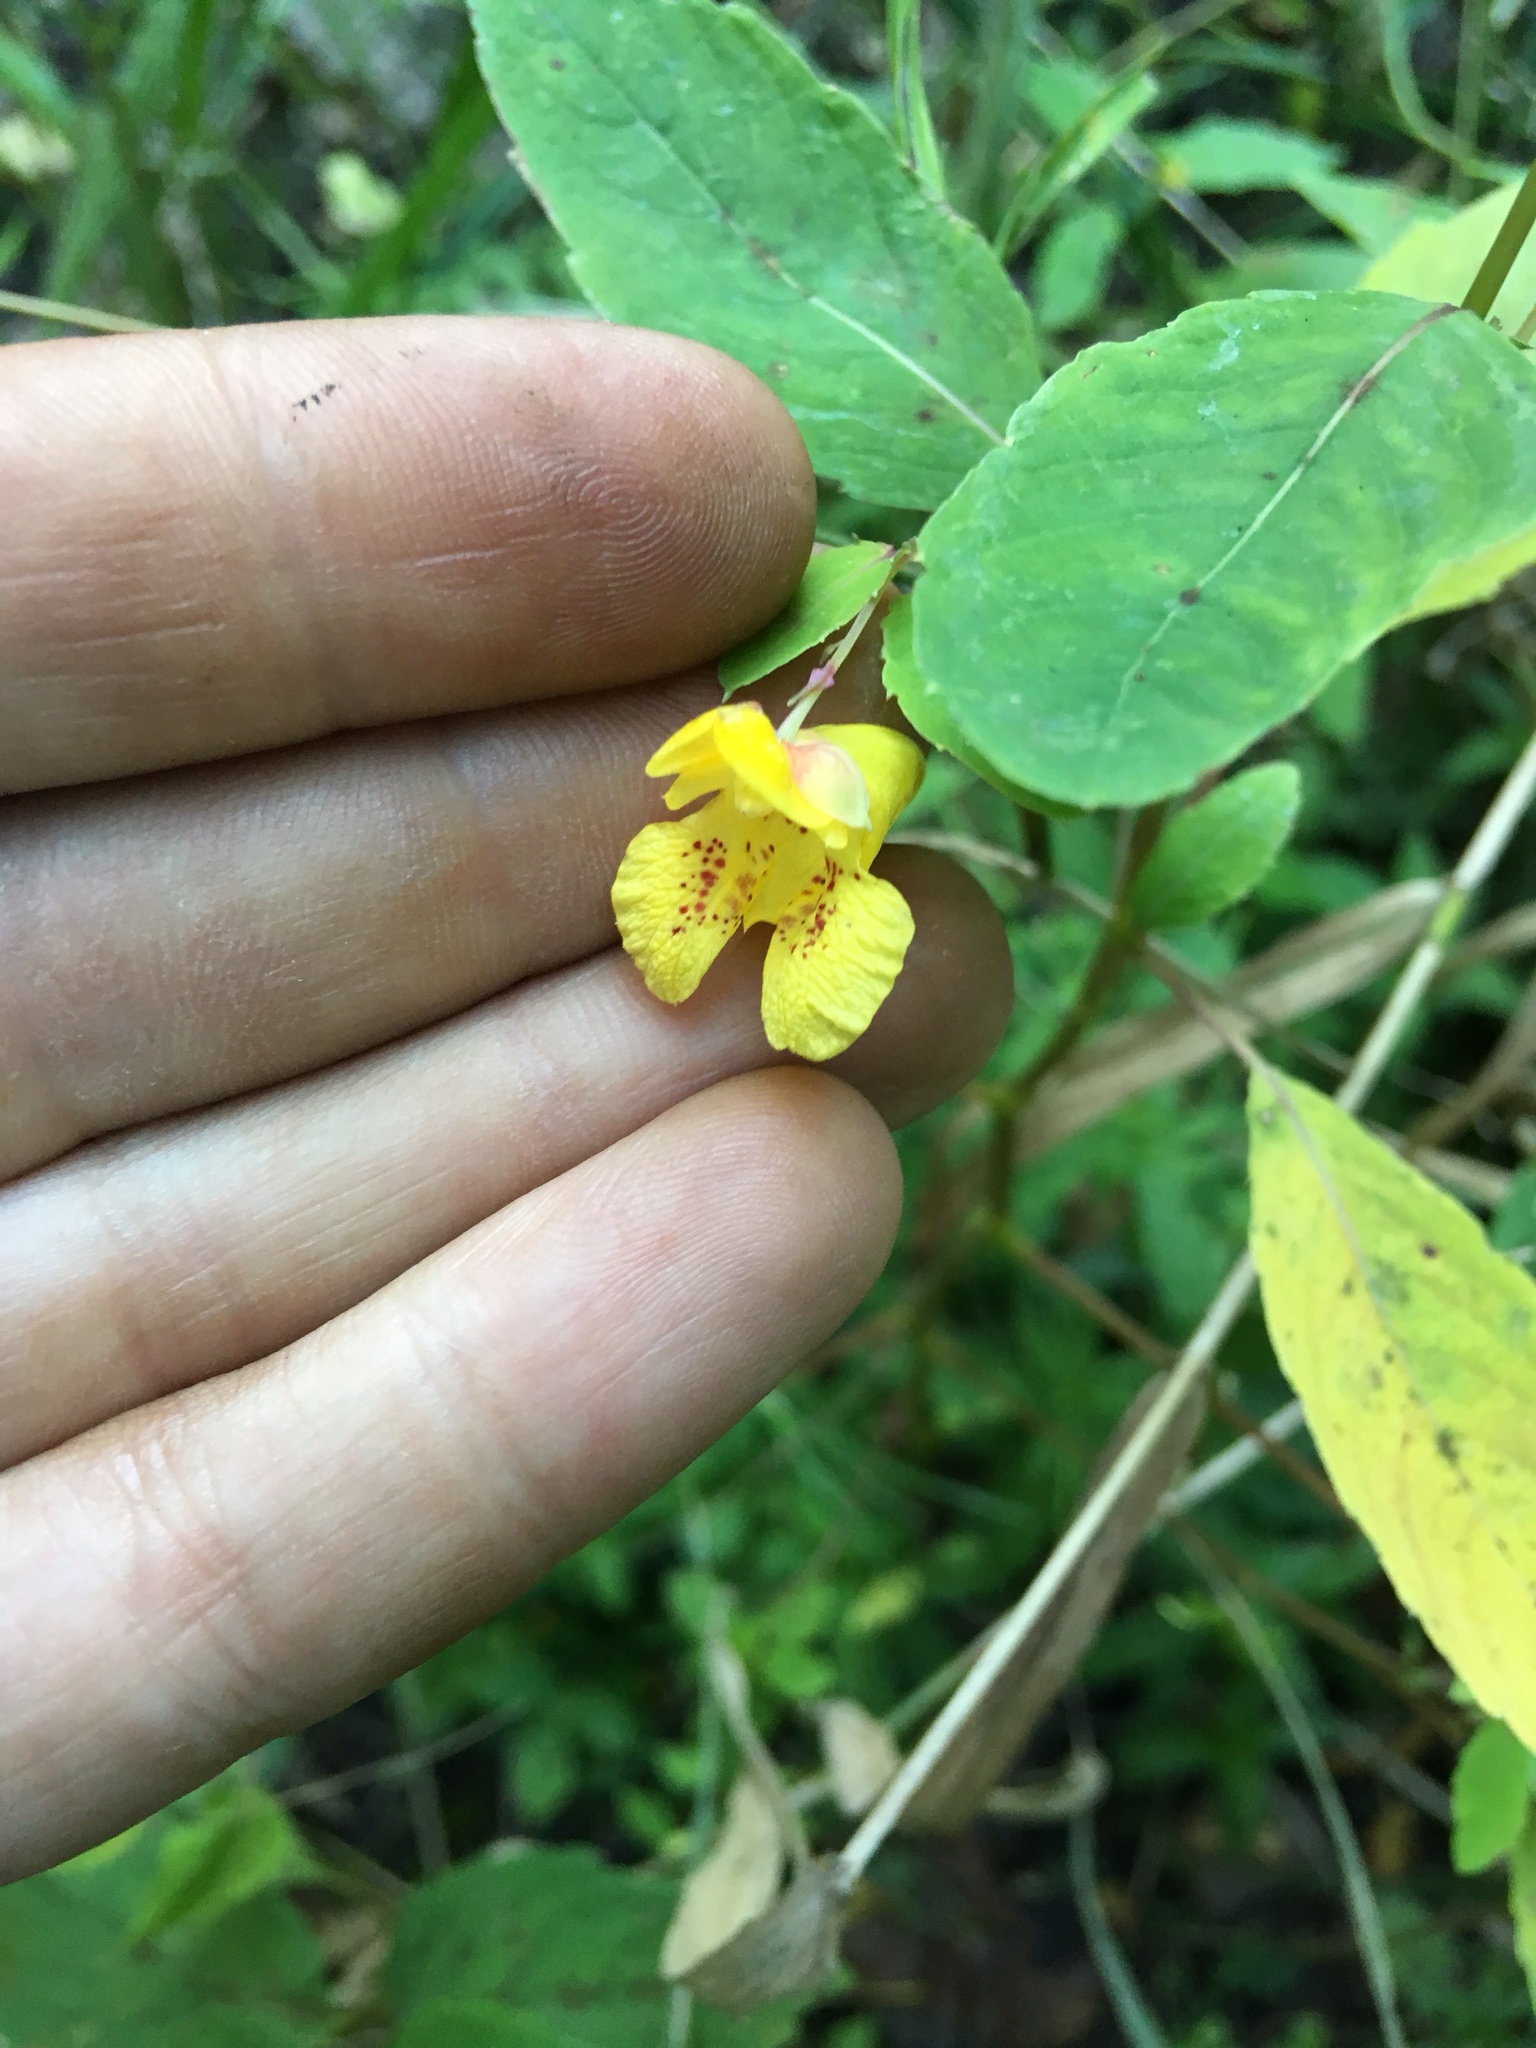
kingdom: Plantae
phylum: Tracheophyta
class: Magnoliopsida
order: Ericales
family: Balsaminaceae
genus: Impatiens
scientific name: Impatiens pallida
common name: Pale snapweed
